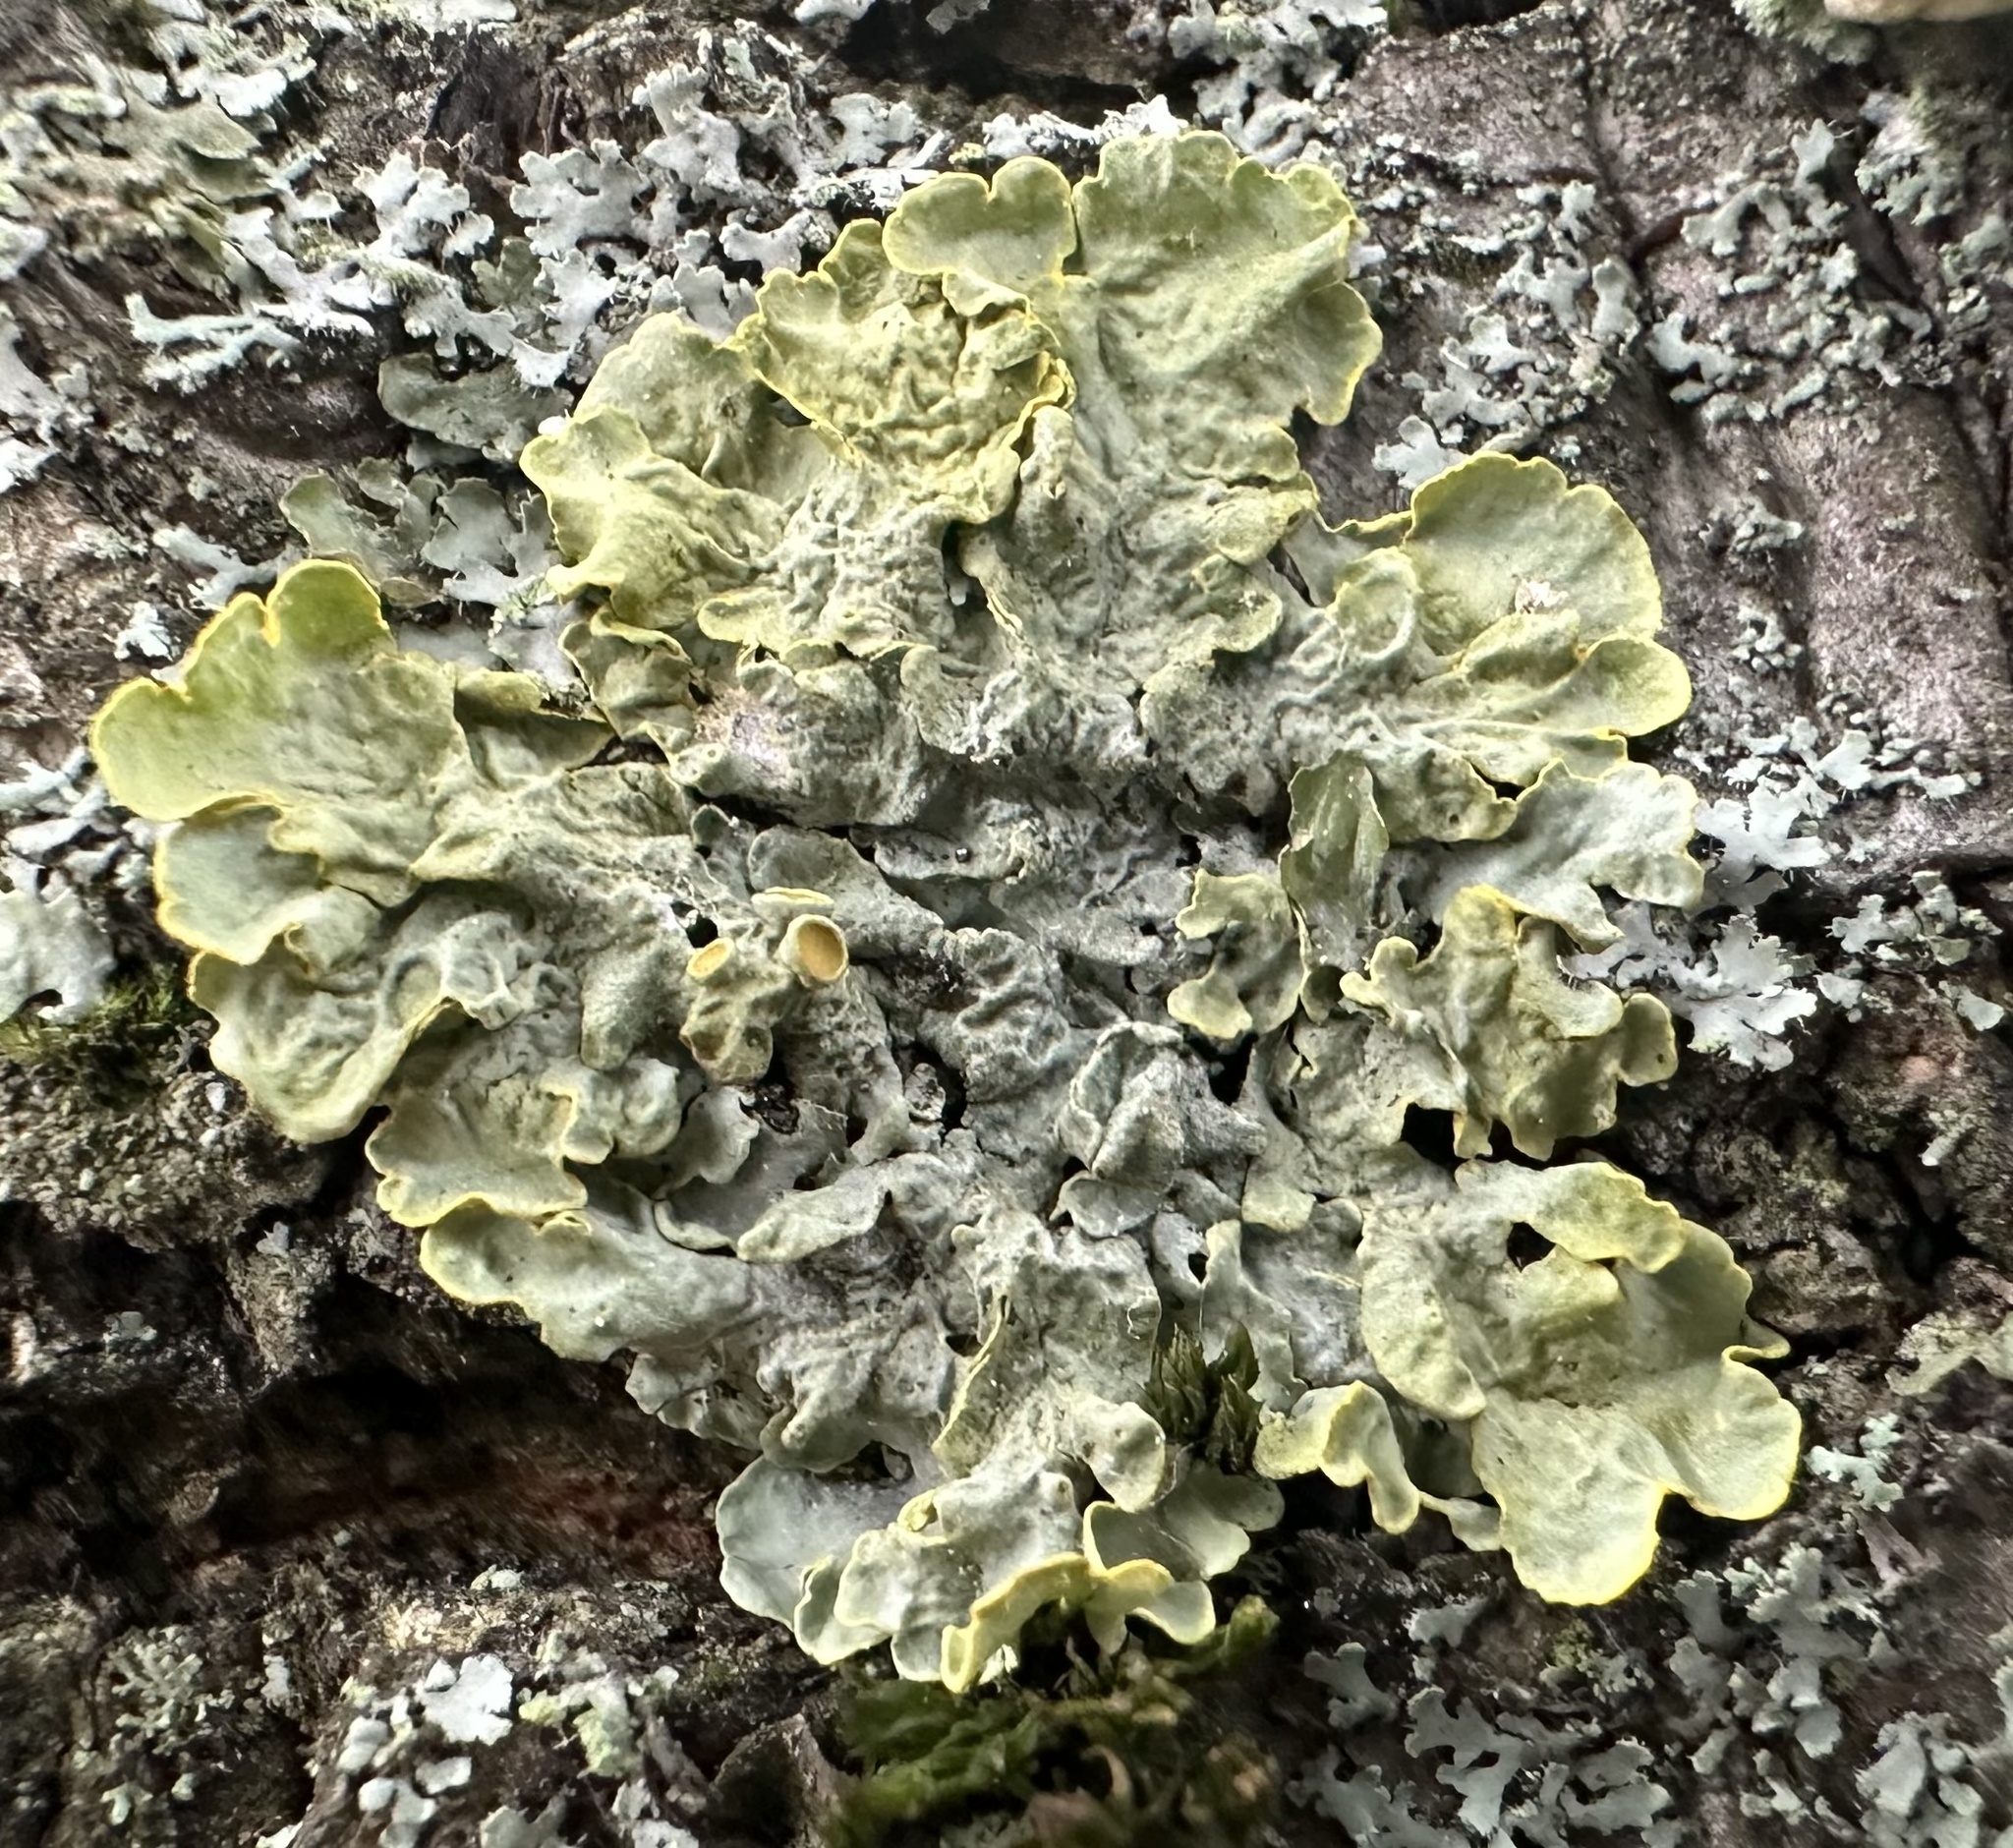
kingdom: Fungi
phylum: Ascomycota
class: Lecanoromycetes
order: Teloschistales
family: Teloschistaceae
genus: Xanthoria
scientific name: Xanthoria parietina
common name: Common orange lichen
